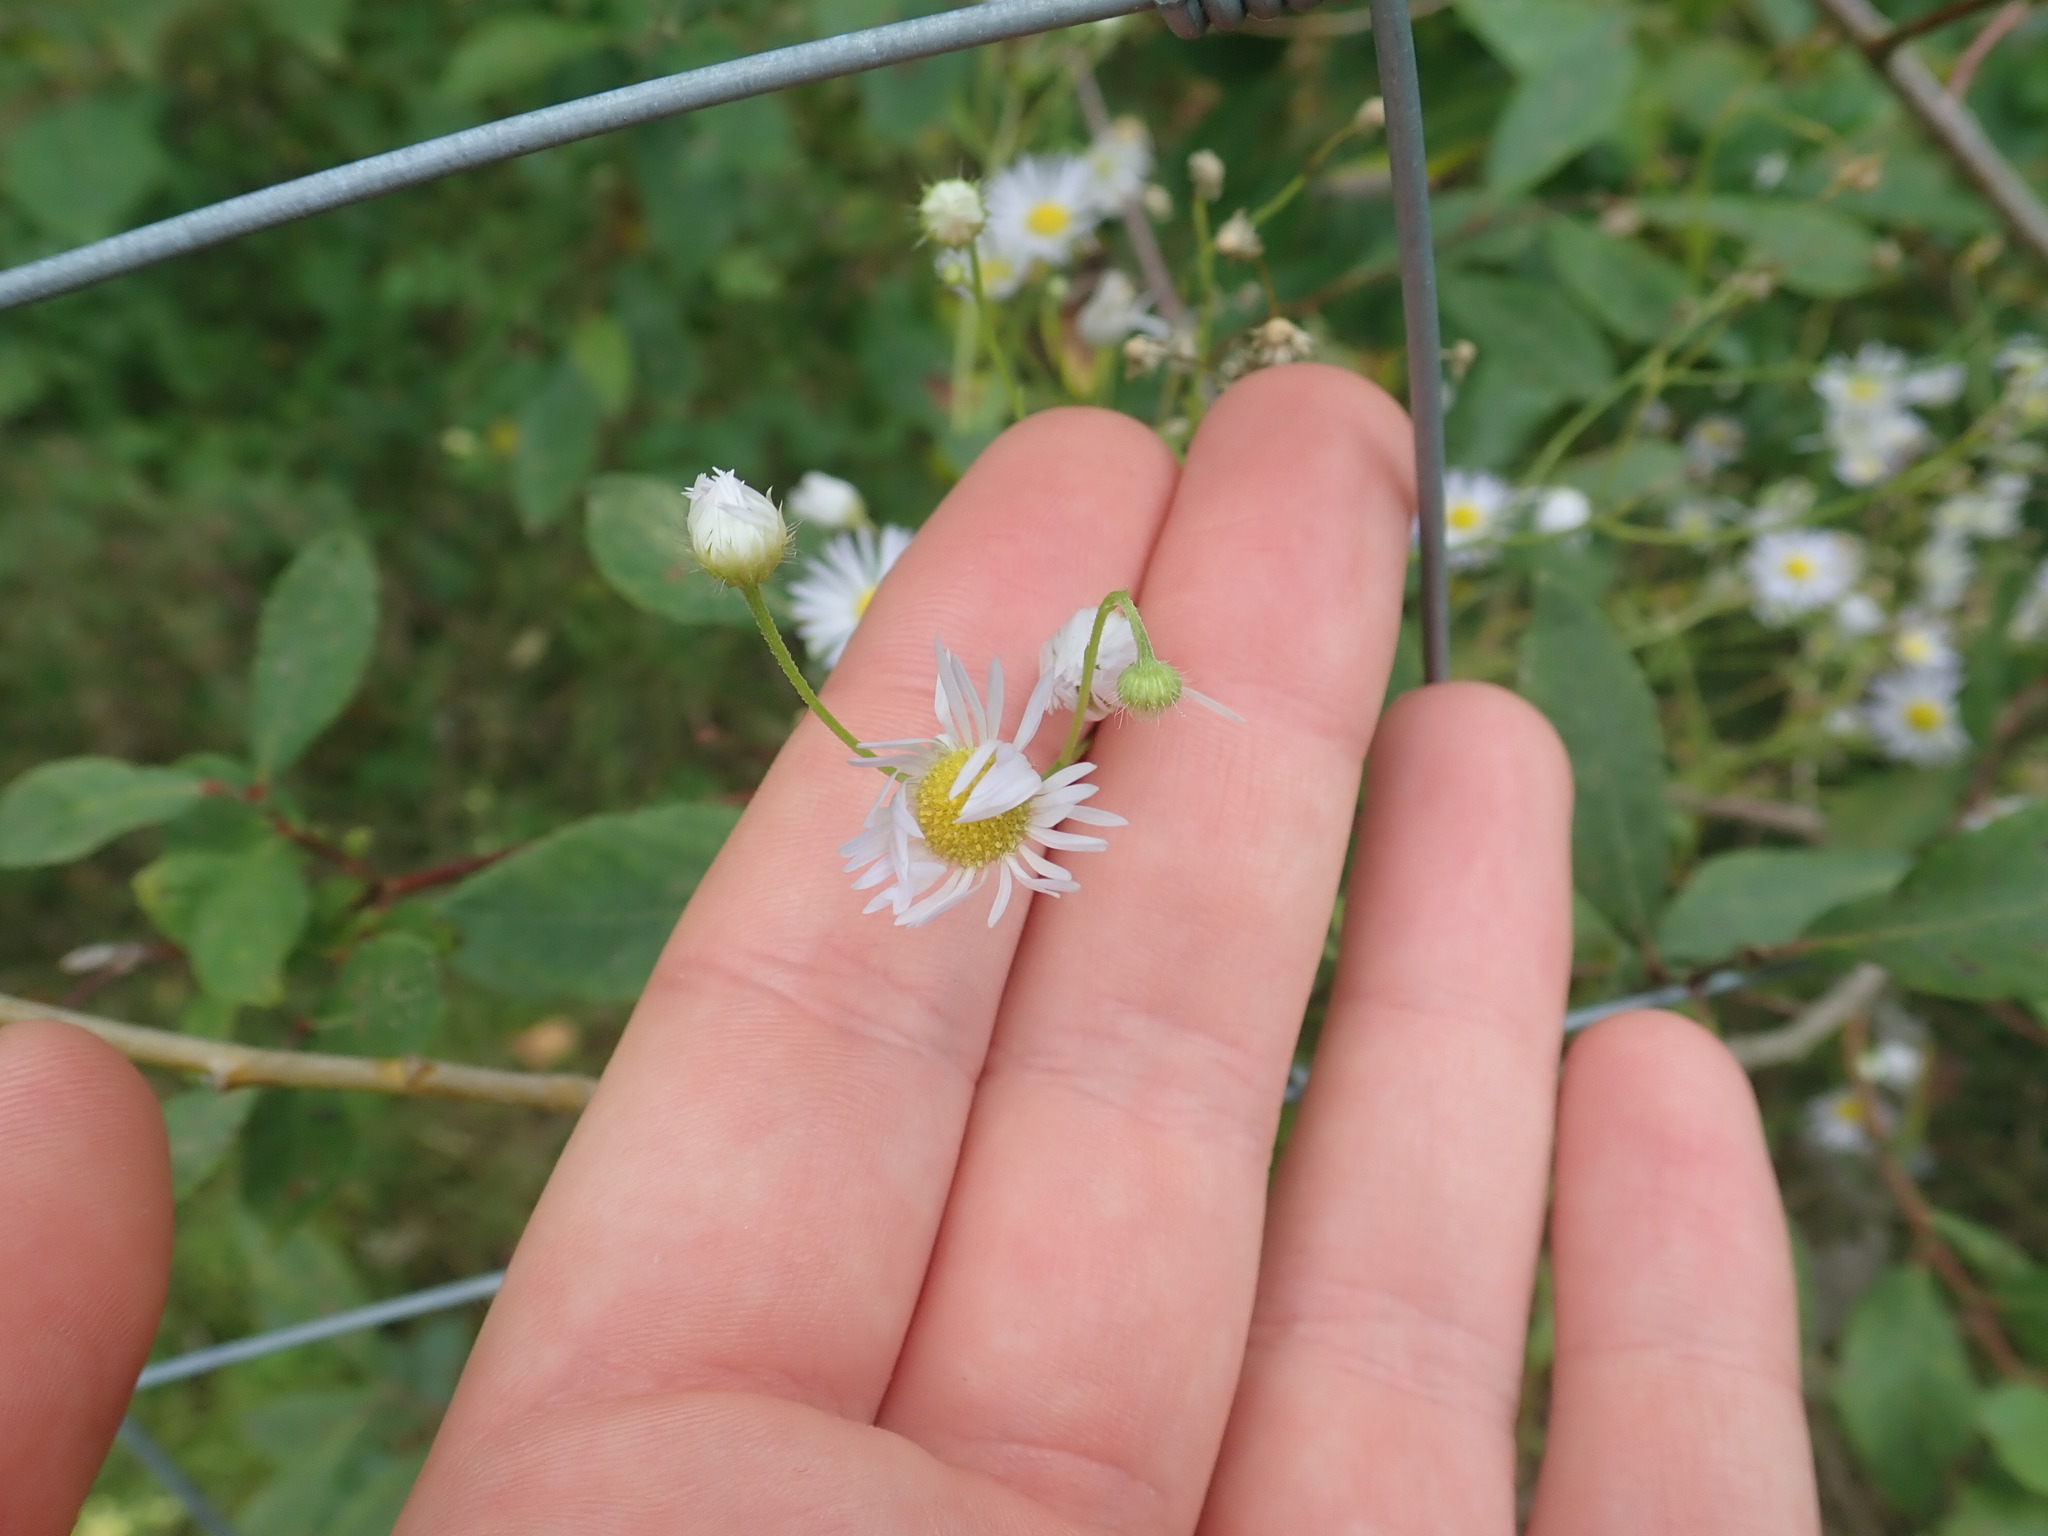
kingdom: Plantae
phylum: Tracheophyta
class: Magnoliopsida
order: Asterales
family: Asteraceae
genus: Erigeron
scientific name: Erigeron annuus
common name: Tall fleabane
